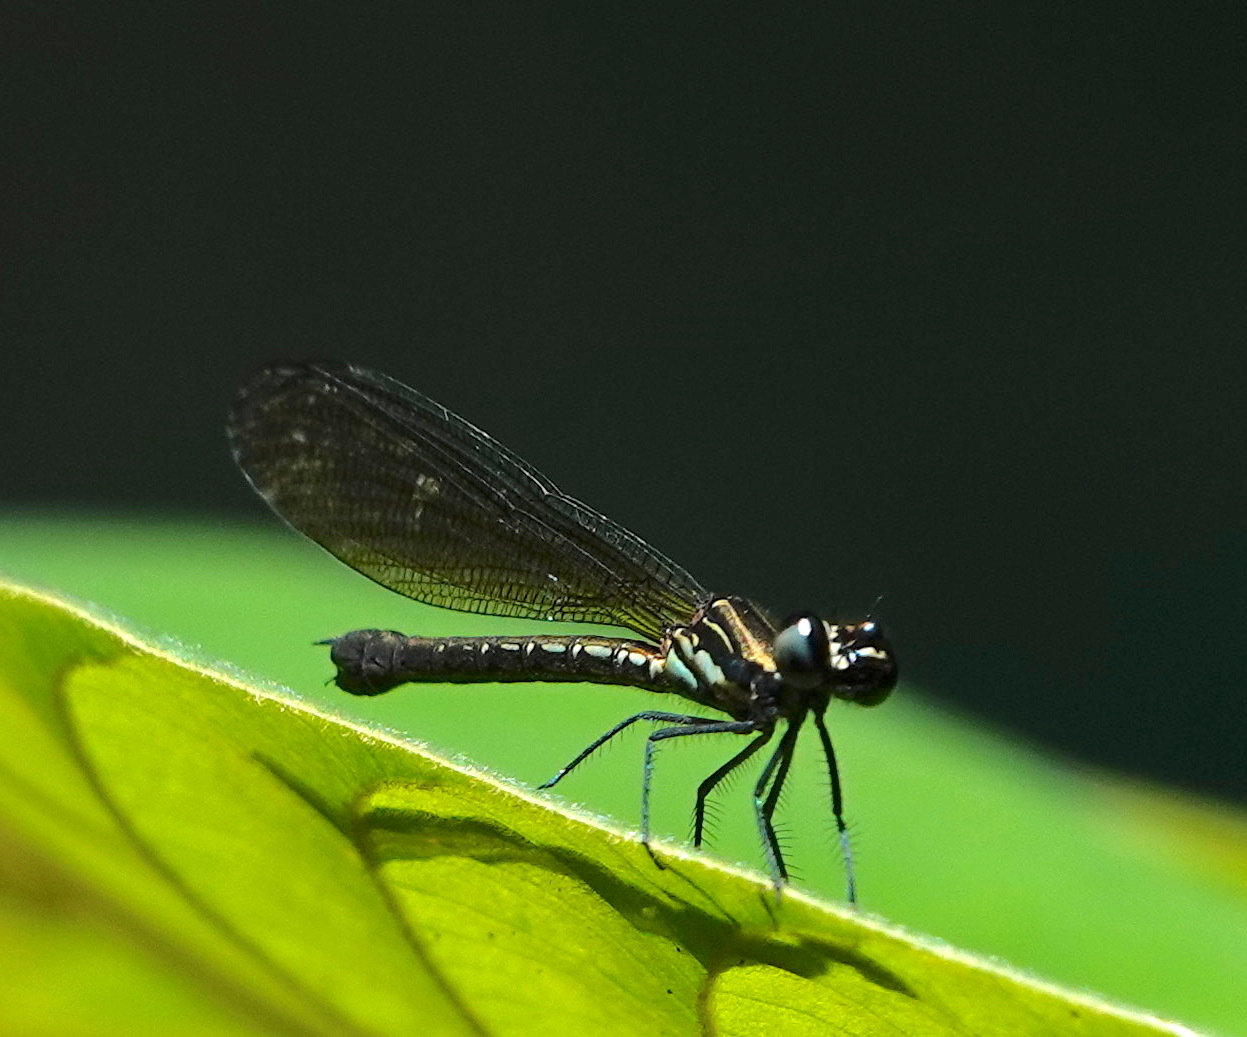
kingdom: Animalia
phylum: Arthropoda
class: Insecta
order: Odonata
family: Chlorocyphidae
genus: Heliocypha
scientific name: Heliocypha fenestrata
